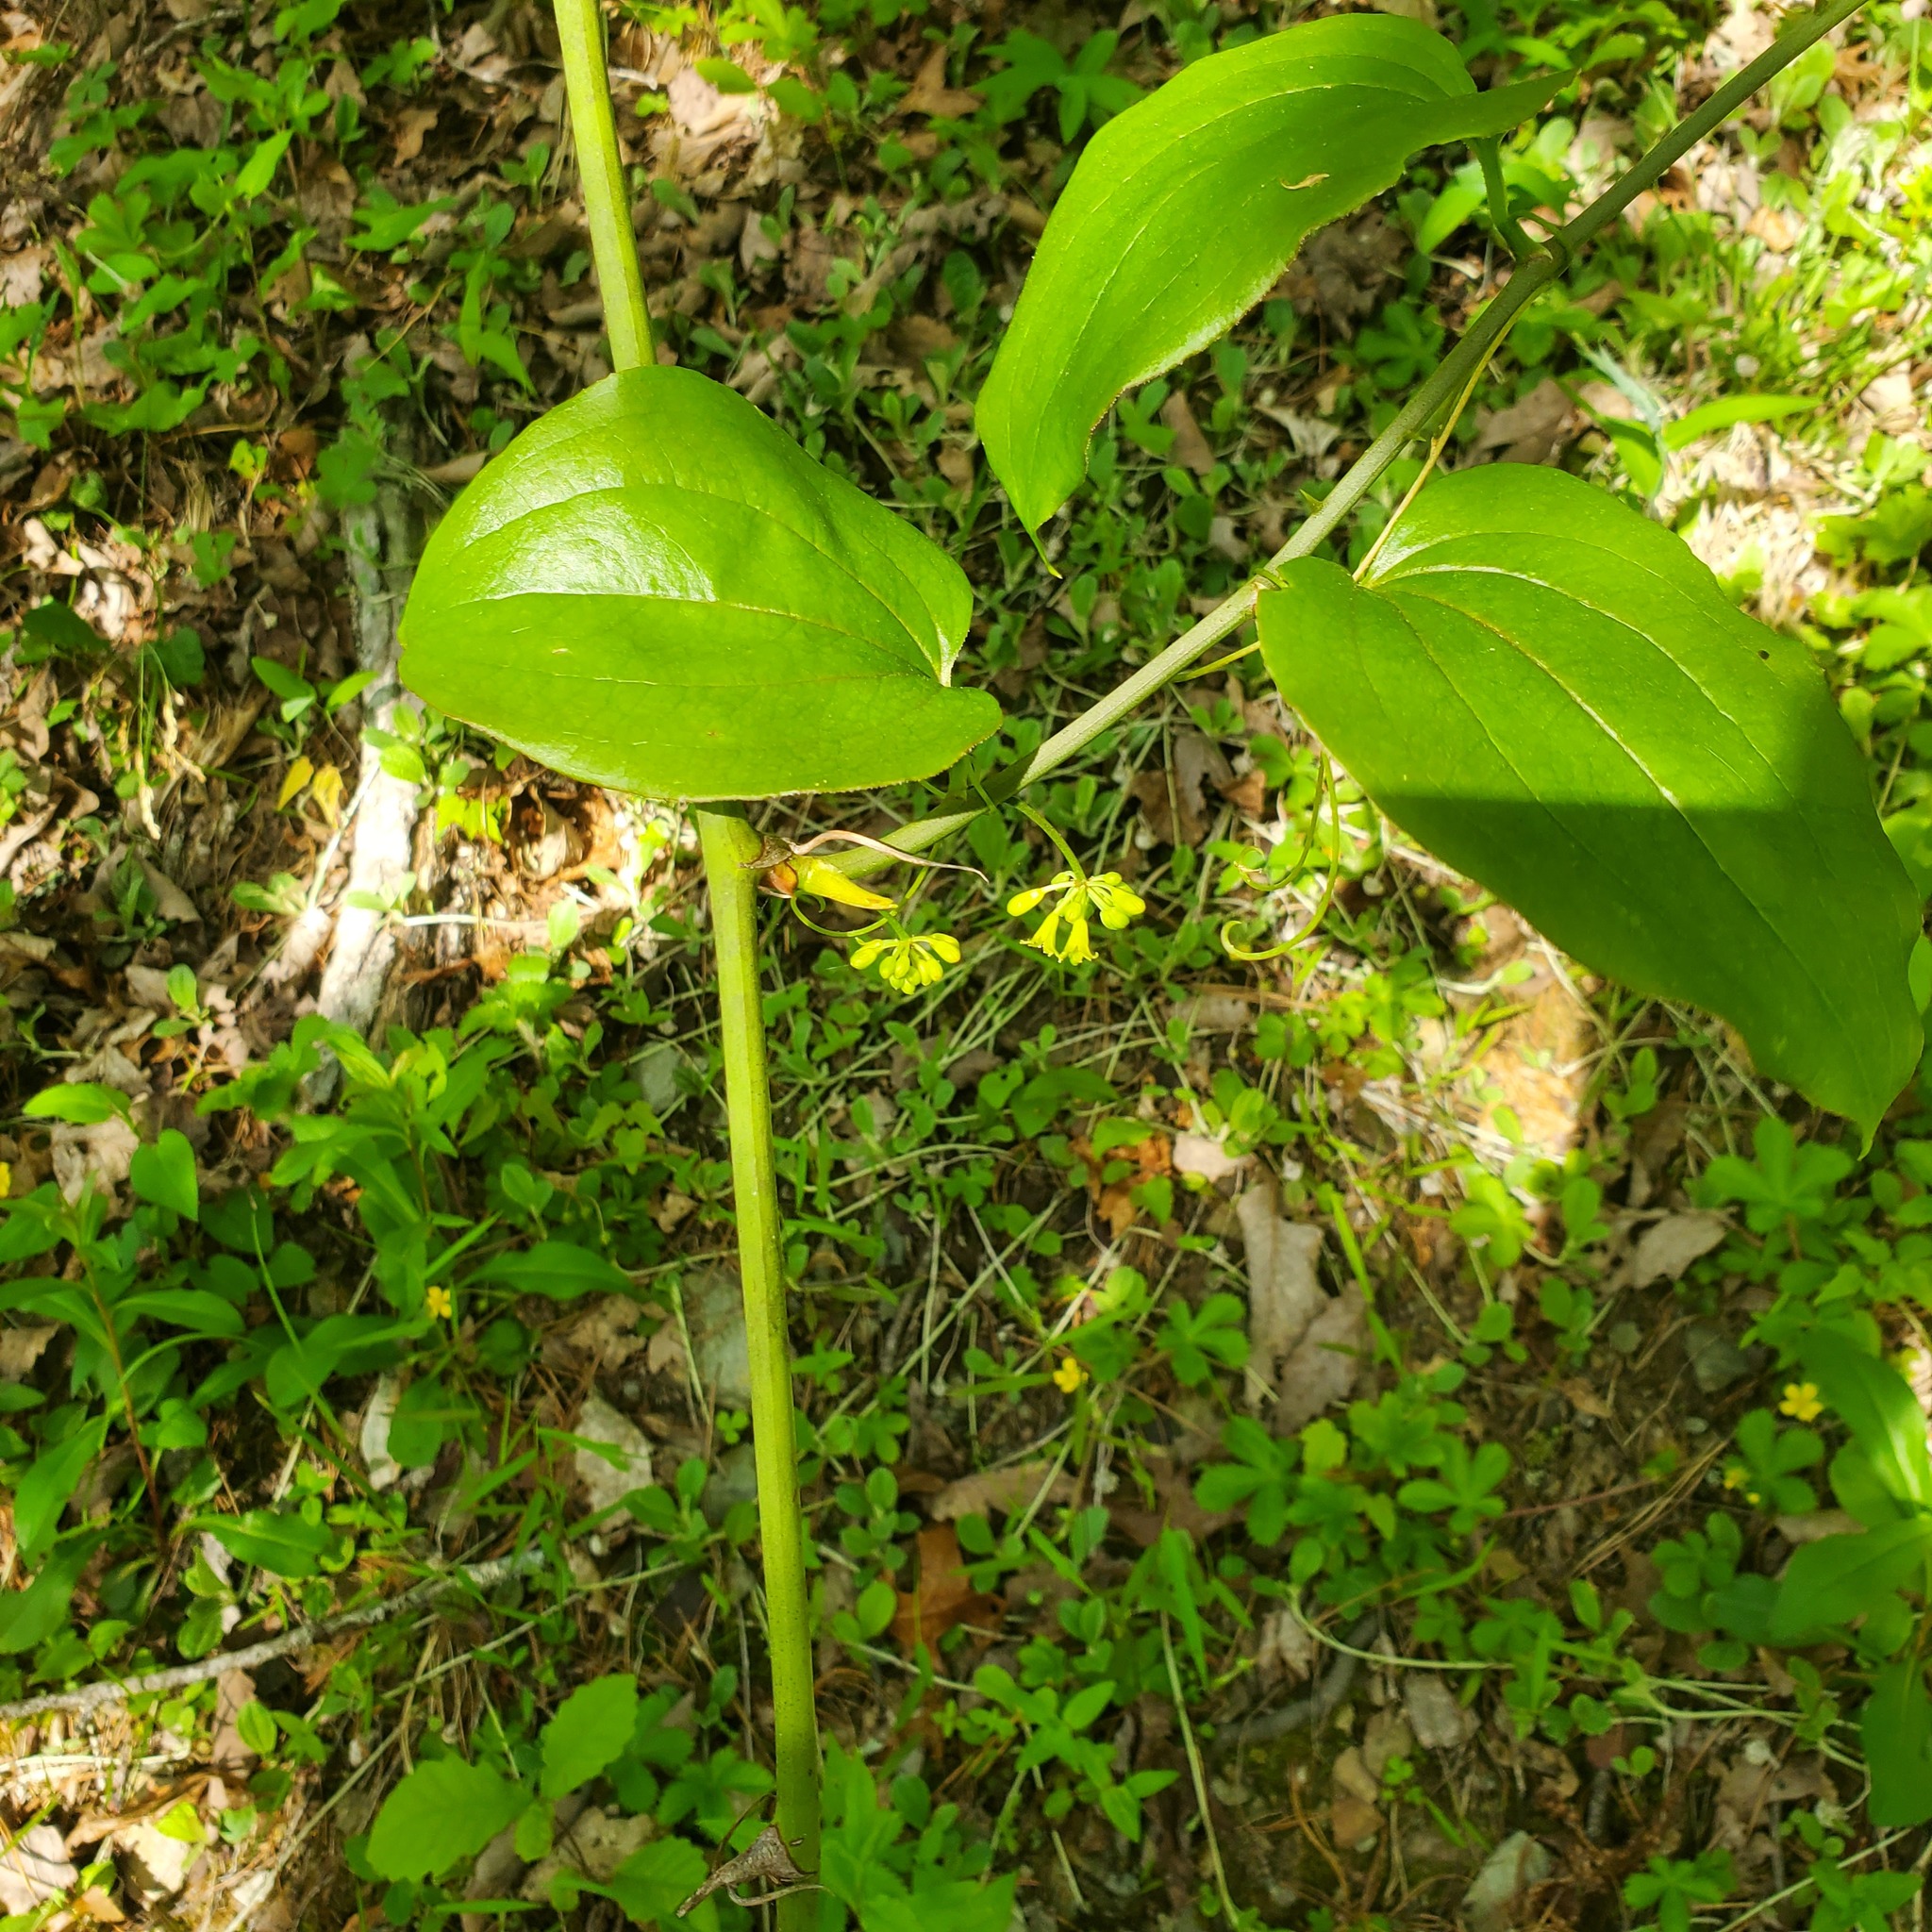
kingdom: Plantae
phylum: Tracheophyta
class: Liliopsida
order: Liliales
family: Smilacaceae
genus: Smilax
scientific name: Smilax rotundifolia
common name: Bullbriar
